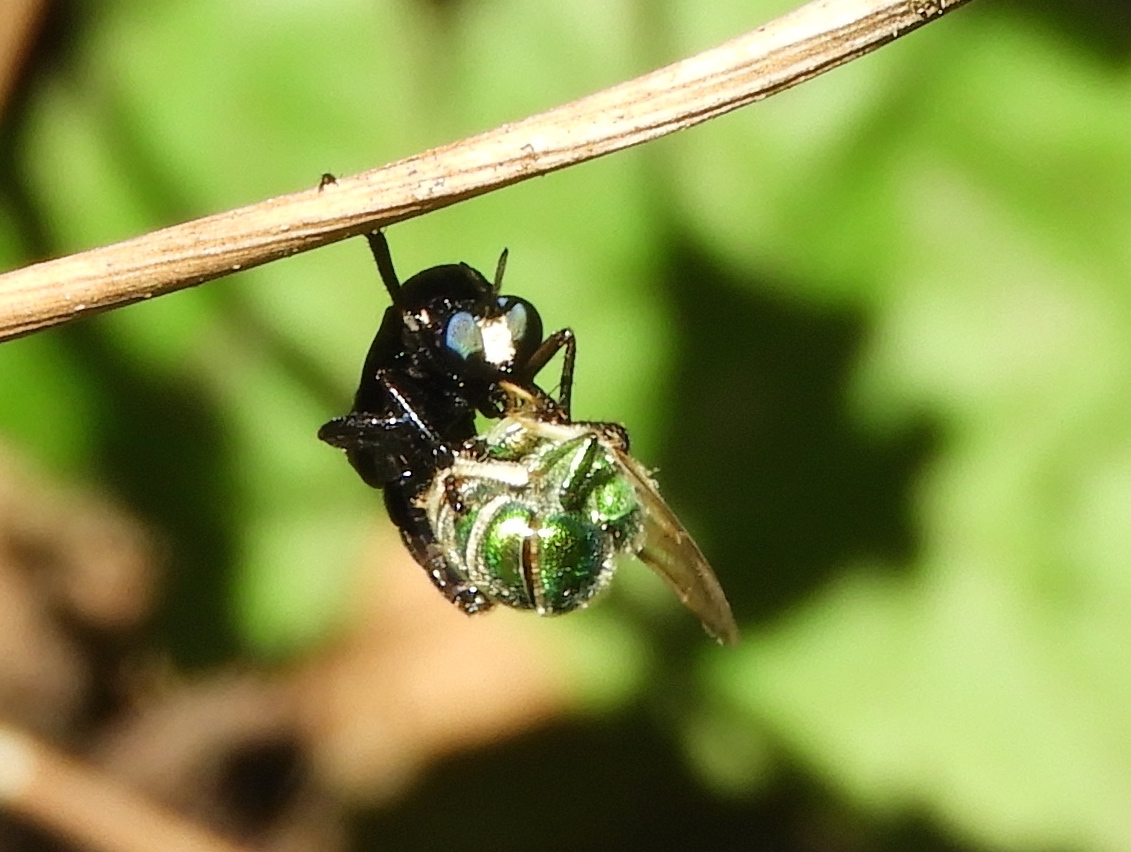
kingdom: Animalia
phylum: Arthropoda
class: Insecta
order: Diptera
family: Asilidae
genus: Saropogon
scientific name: Saropogon
